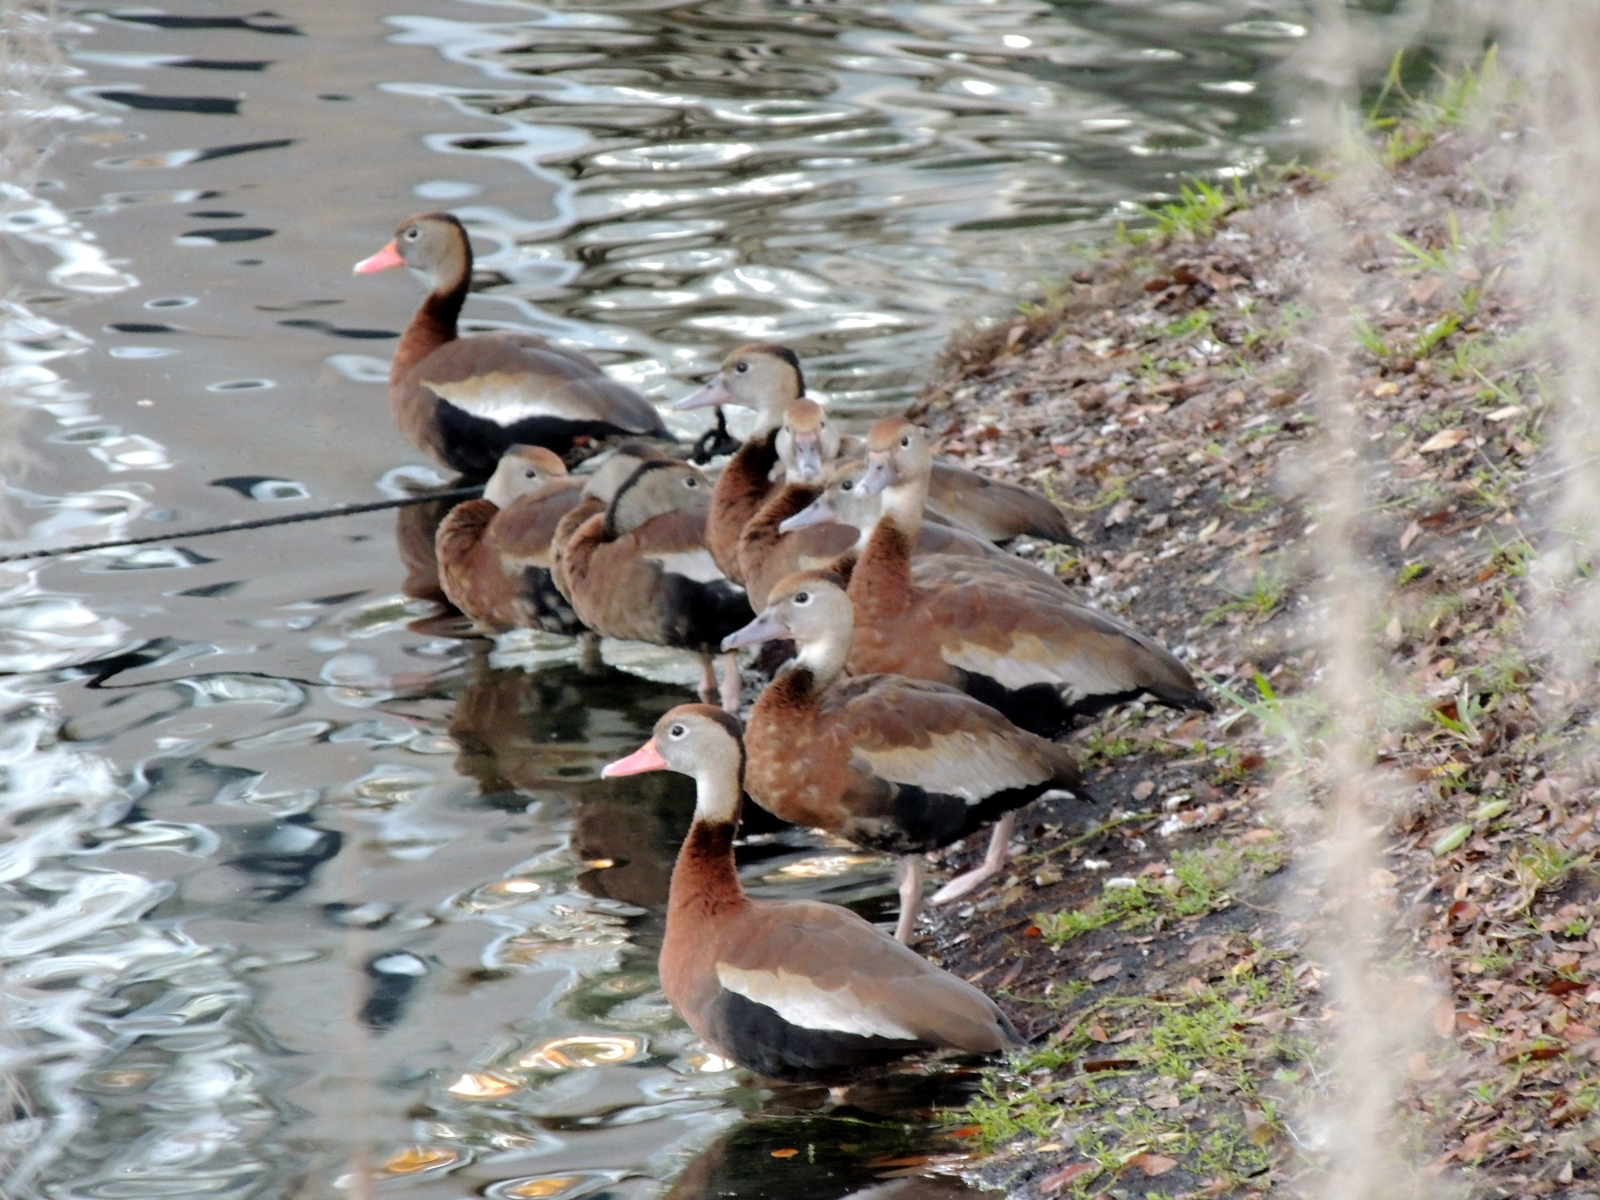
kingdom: Animalia
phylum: Chordata
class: Aves
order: Anseriformes
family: Anatidae
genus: Dendrocygna
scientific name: Dendrocygna autumnalis
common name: Black-bellied whistling duck
